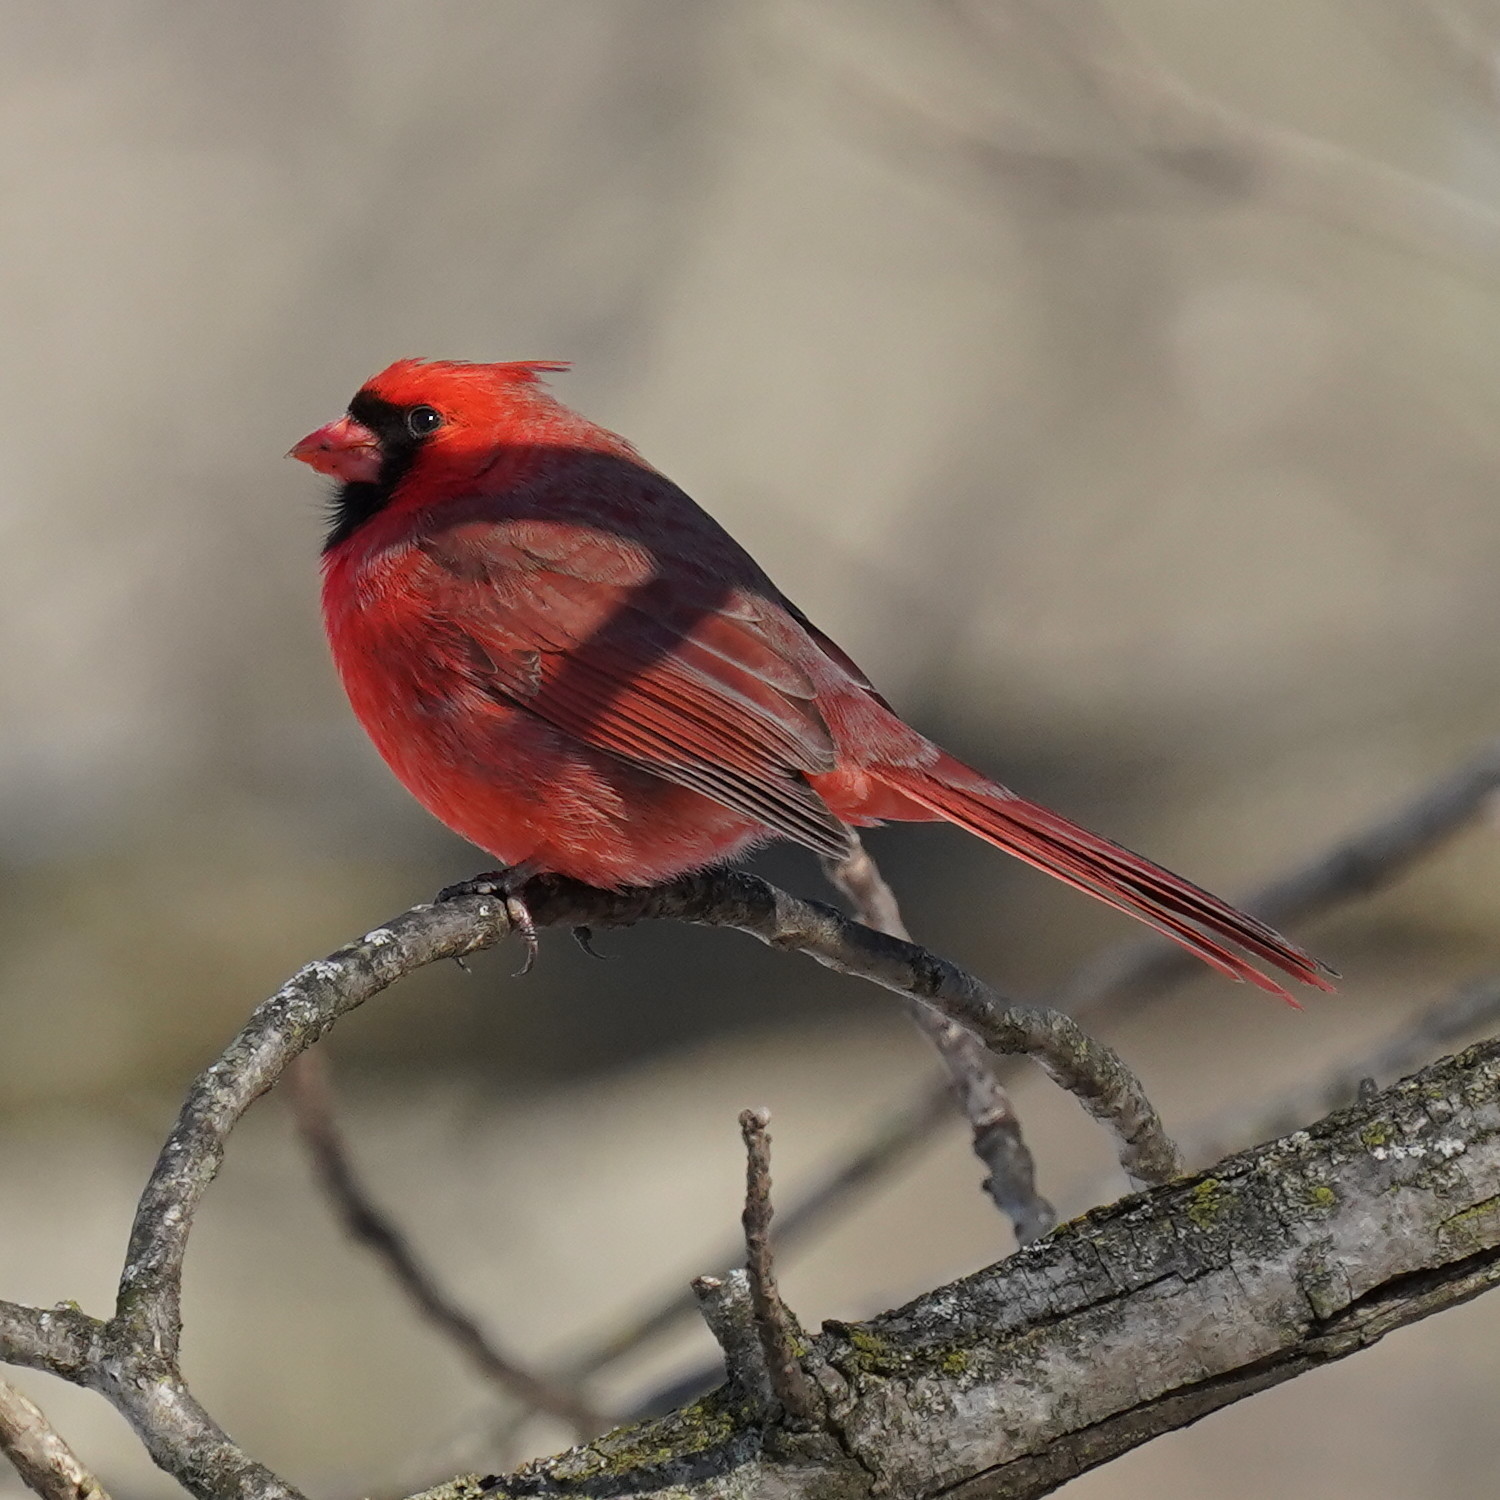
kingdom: Animalia
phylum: Chordata
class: Aves
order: Passeriformes
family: Cardinalidae
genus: Cardinalis
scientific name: Cardinalis cardinalis
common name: Northern cardinal
